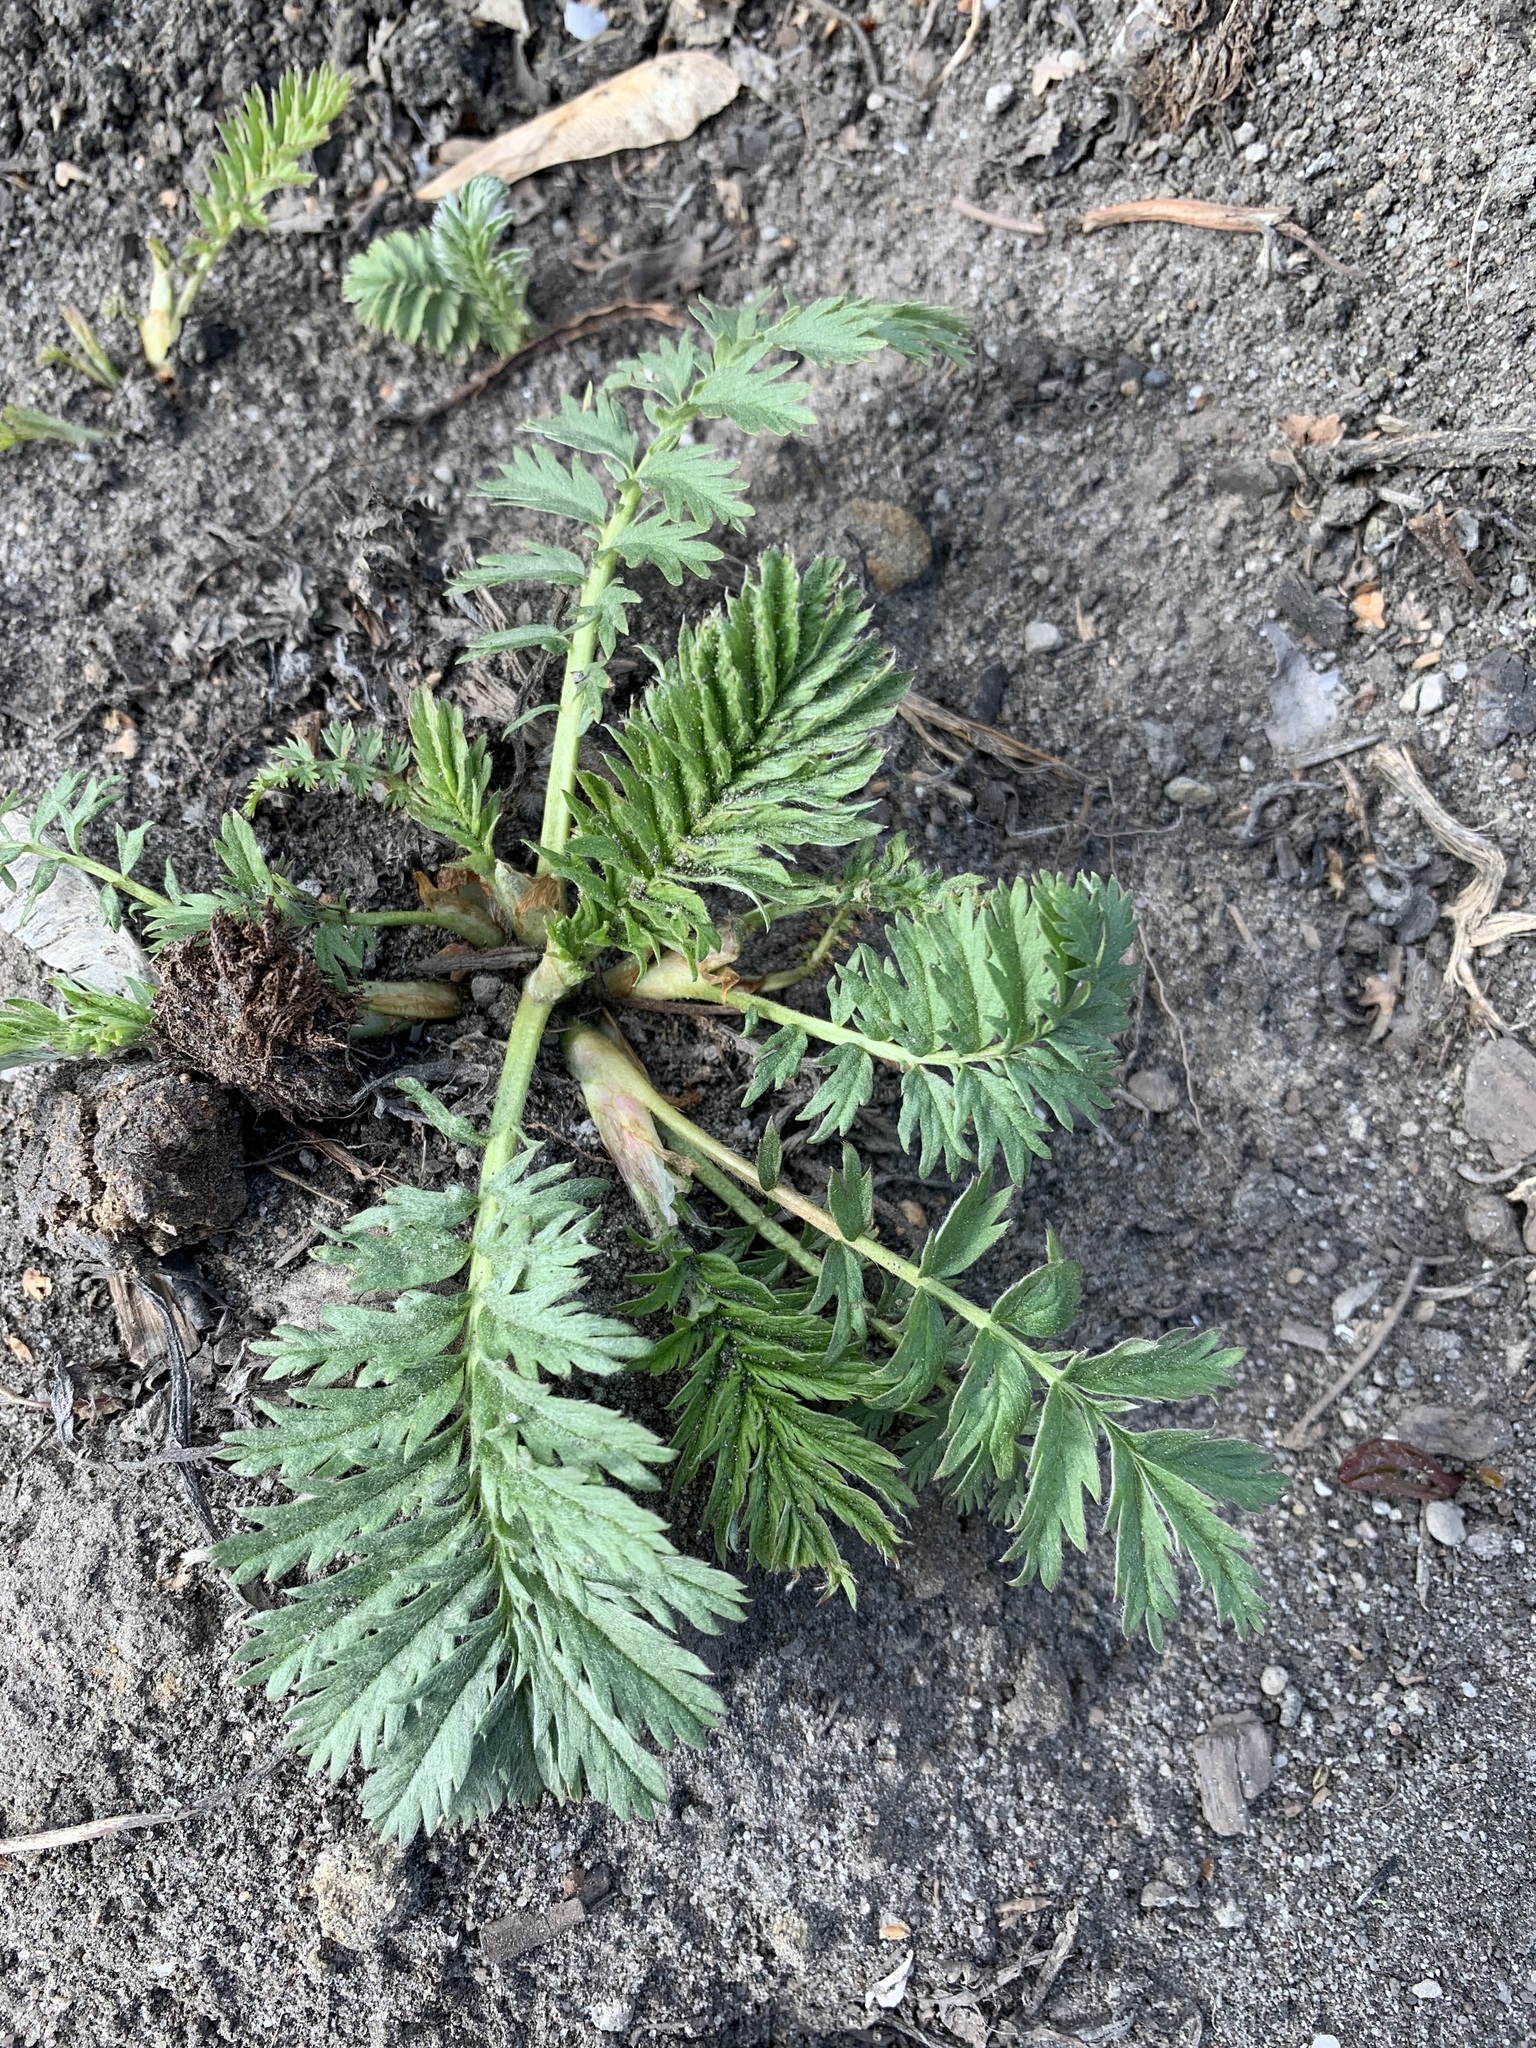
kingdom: Plantae
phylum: Tracheophyta
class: Magnoliopsida
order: Rosales
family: Rosaceae
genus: Argentina
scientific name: Argentina anserina
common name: Common silverweed
